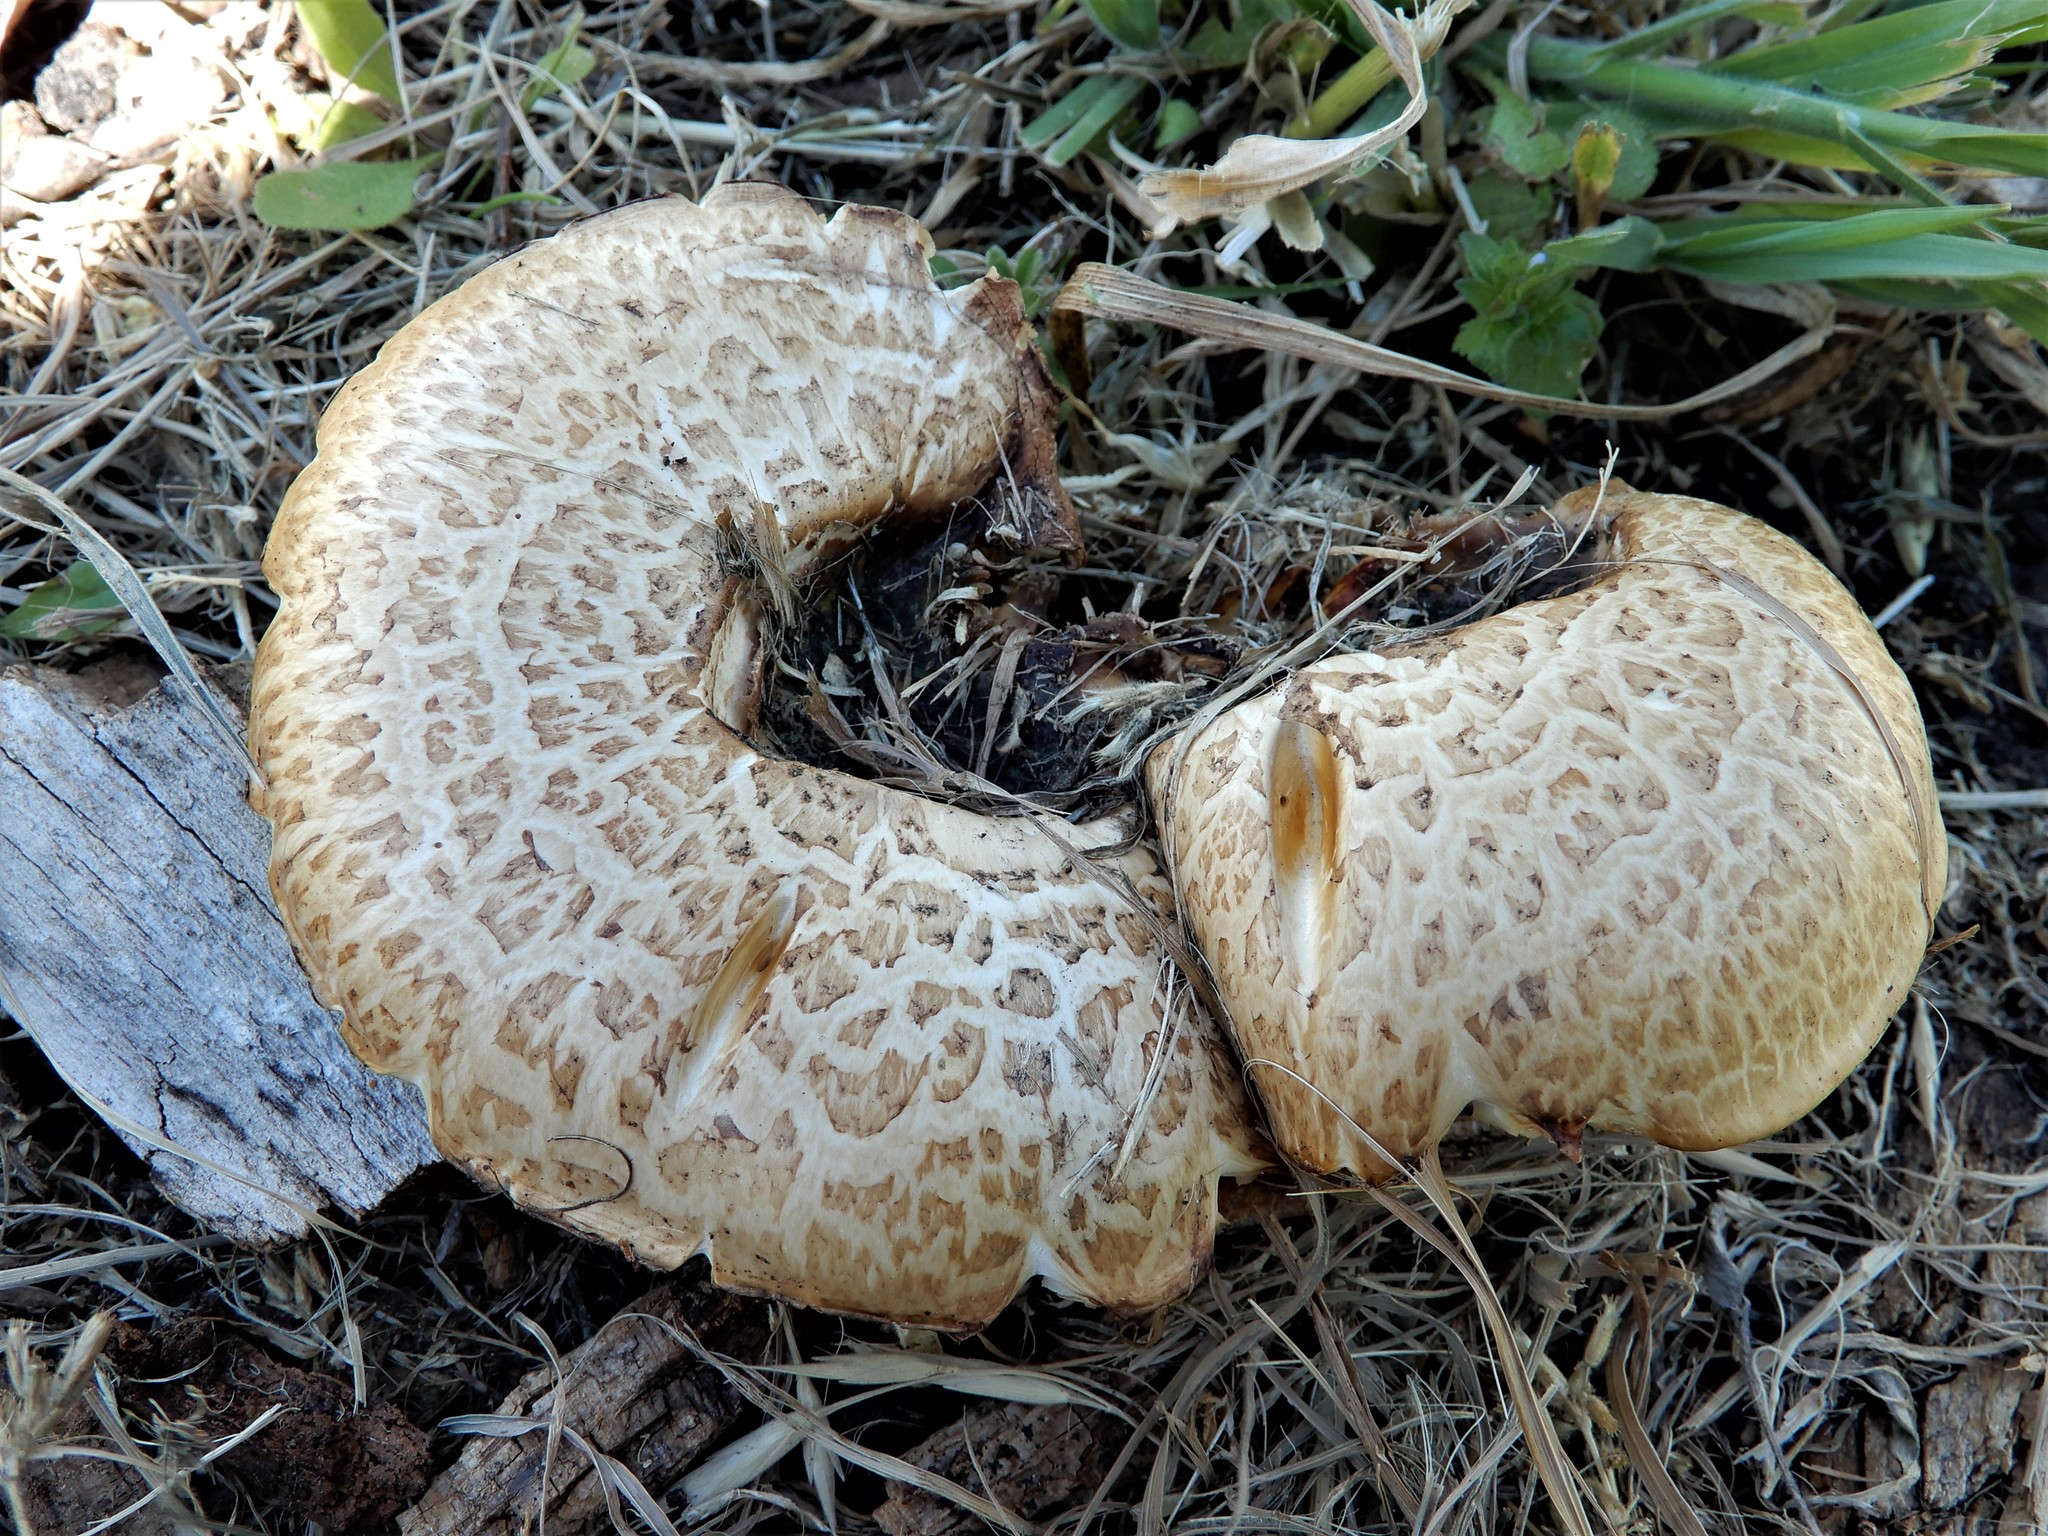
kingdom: Fungi
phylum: Basidiomycota
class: Agaricomycetes
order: Gloeophyllales
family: Gloeophyllaceae
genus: Neolentinus
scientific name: Neolentinus lepideus
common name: Scaly sawgill
